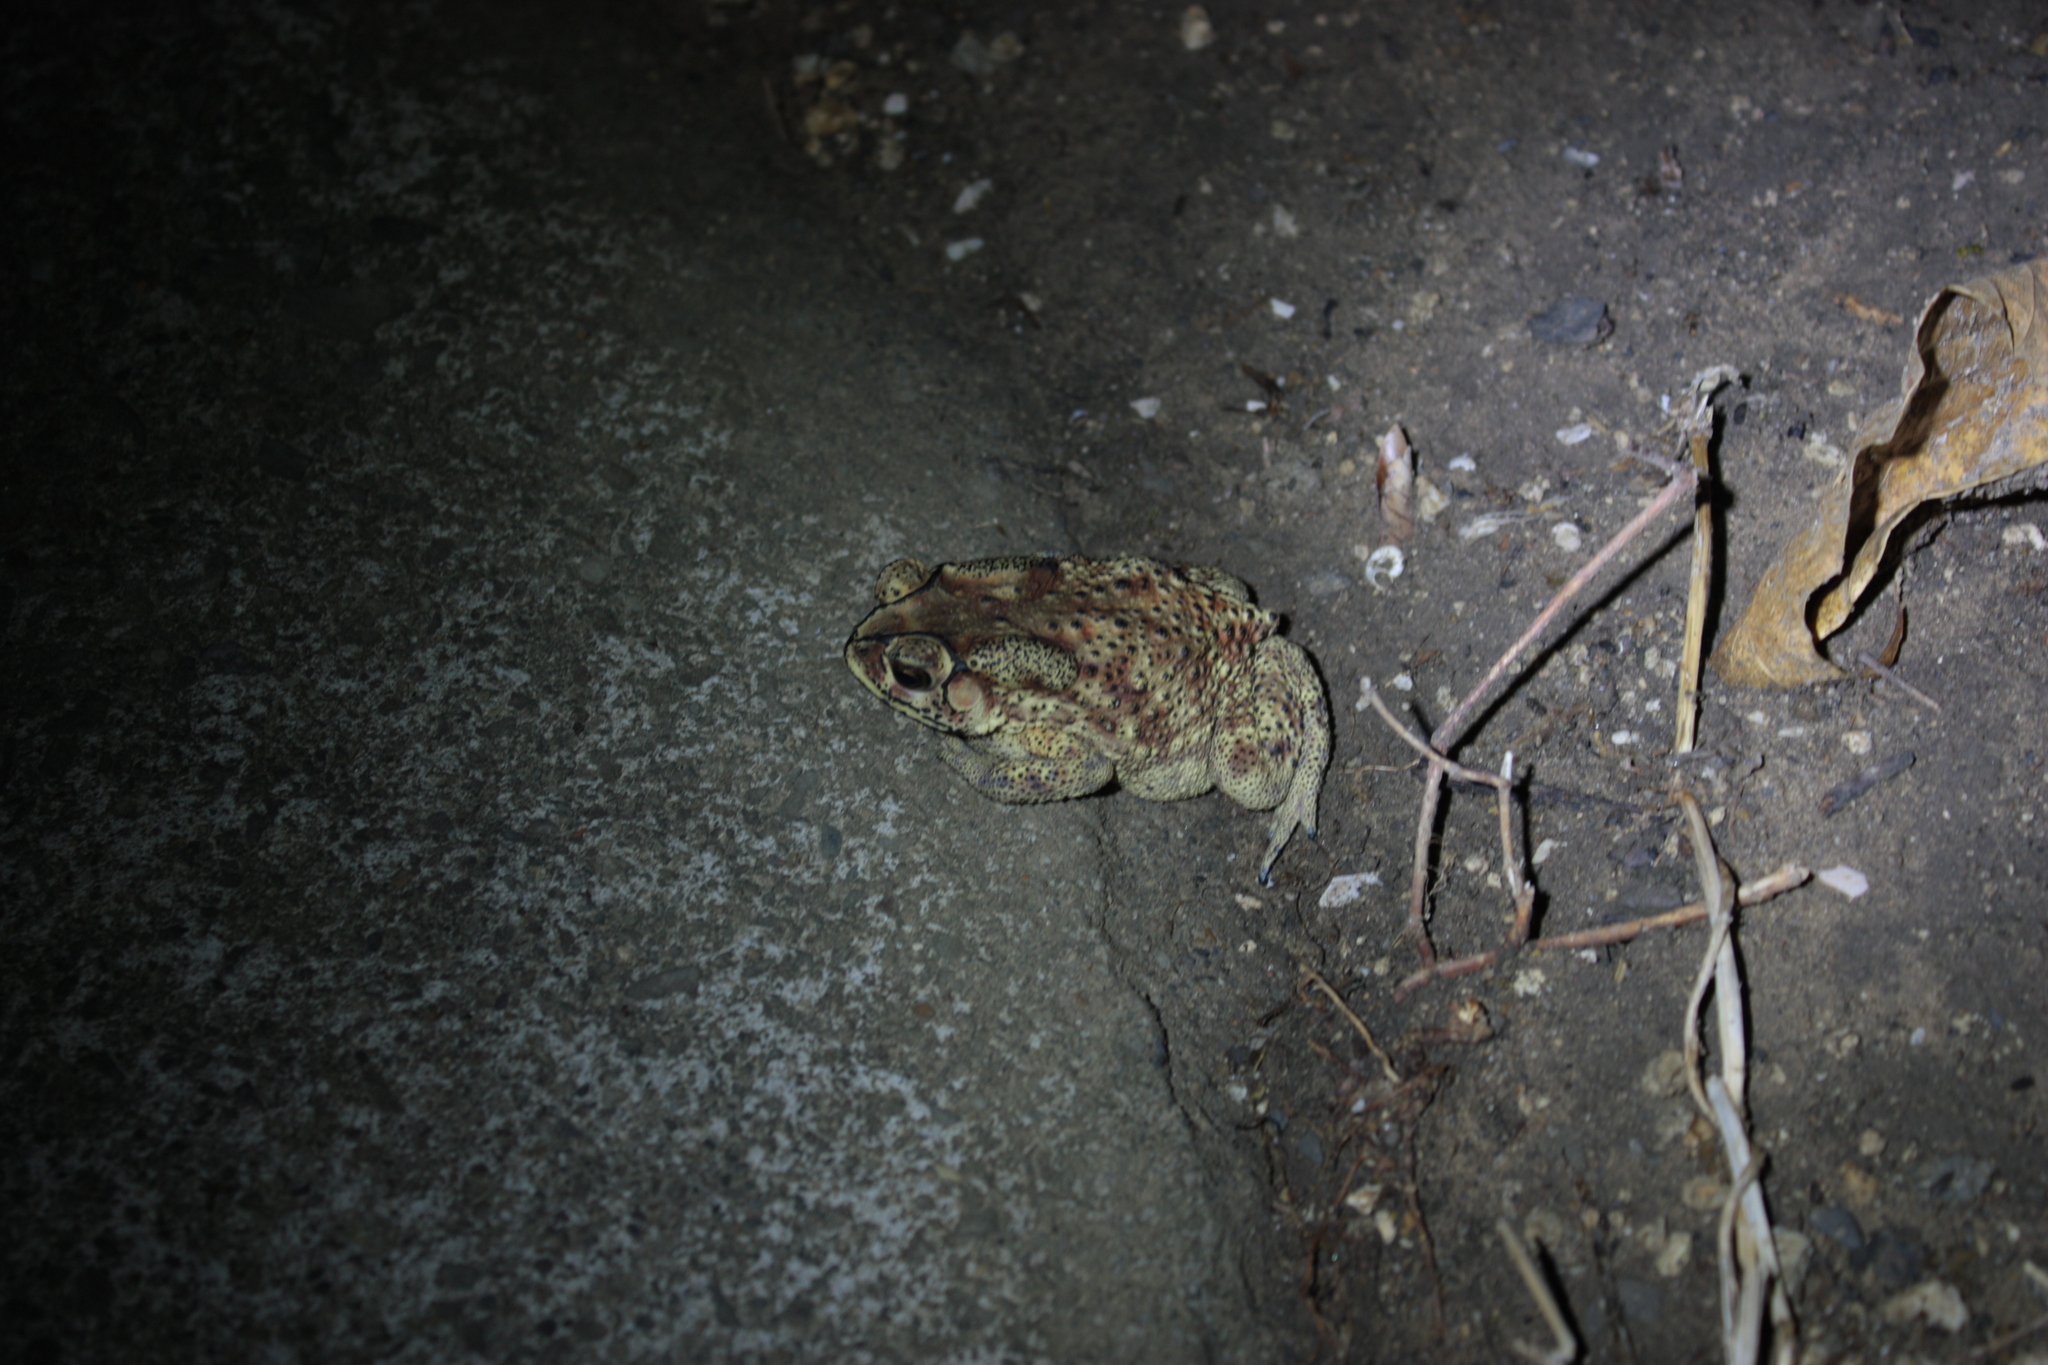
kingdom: Animalia
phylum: Chordata
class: Amphibia
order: Anura
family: Bufonidae
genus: Duttaphrynus
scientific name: Duttaphrynus melanostictus
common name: Common sunda toad
